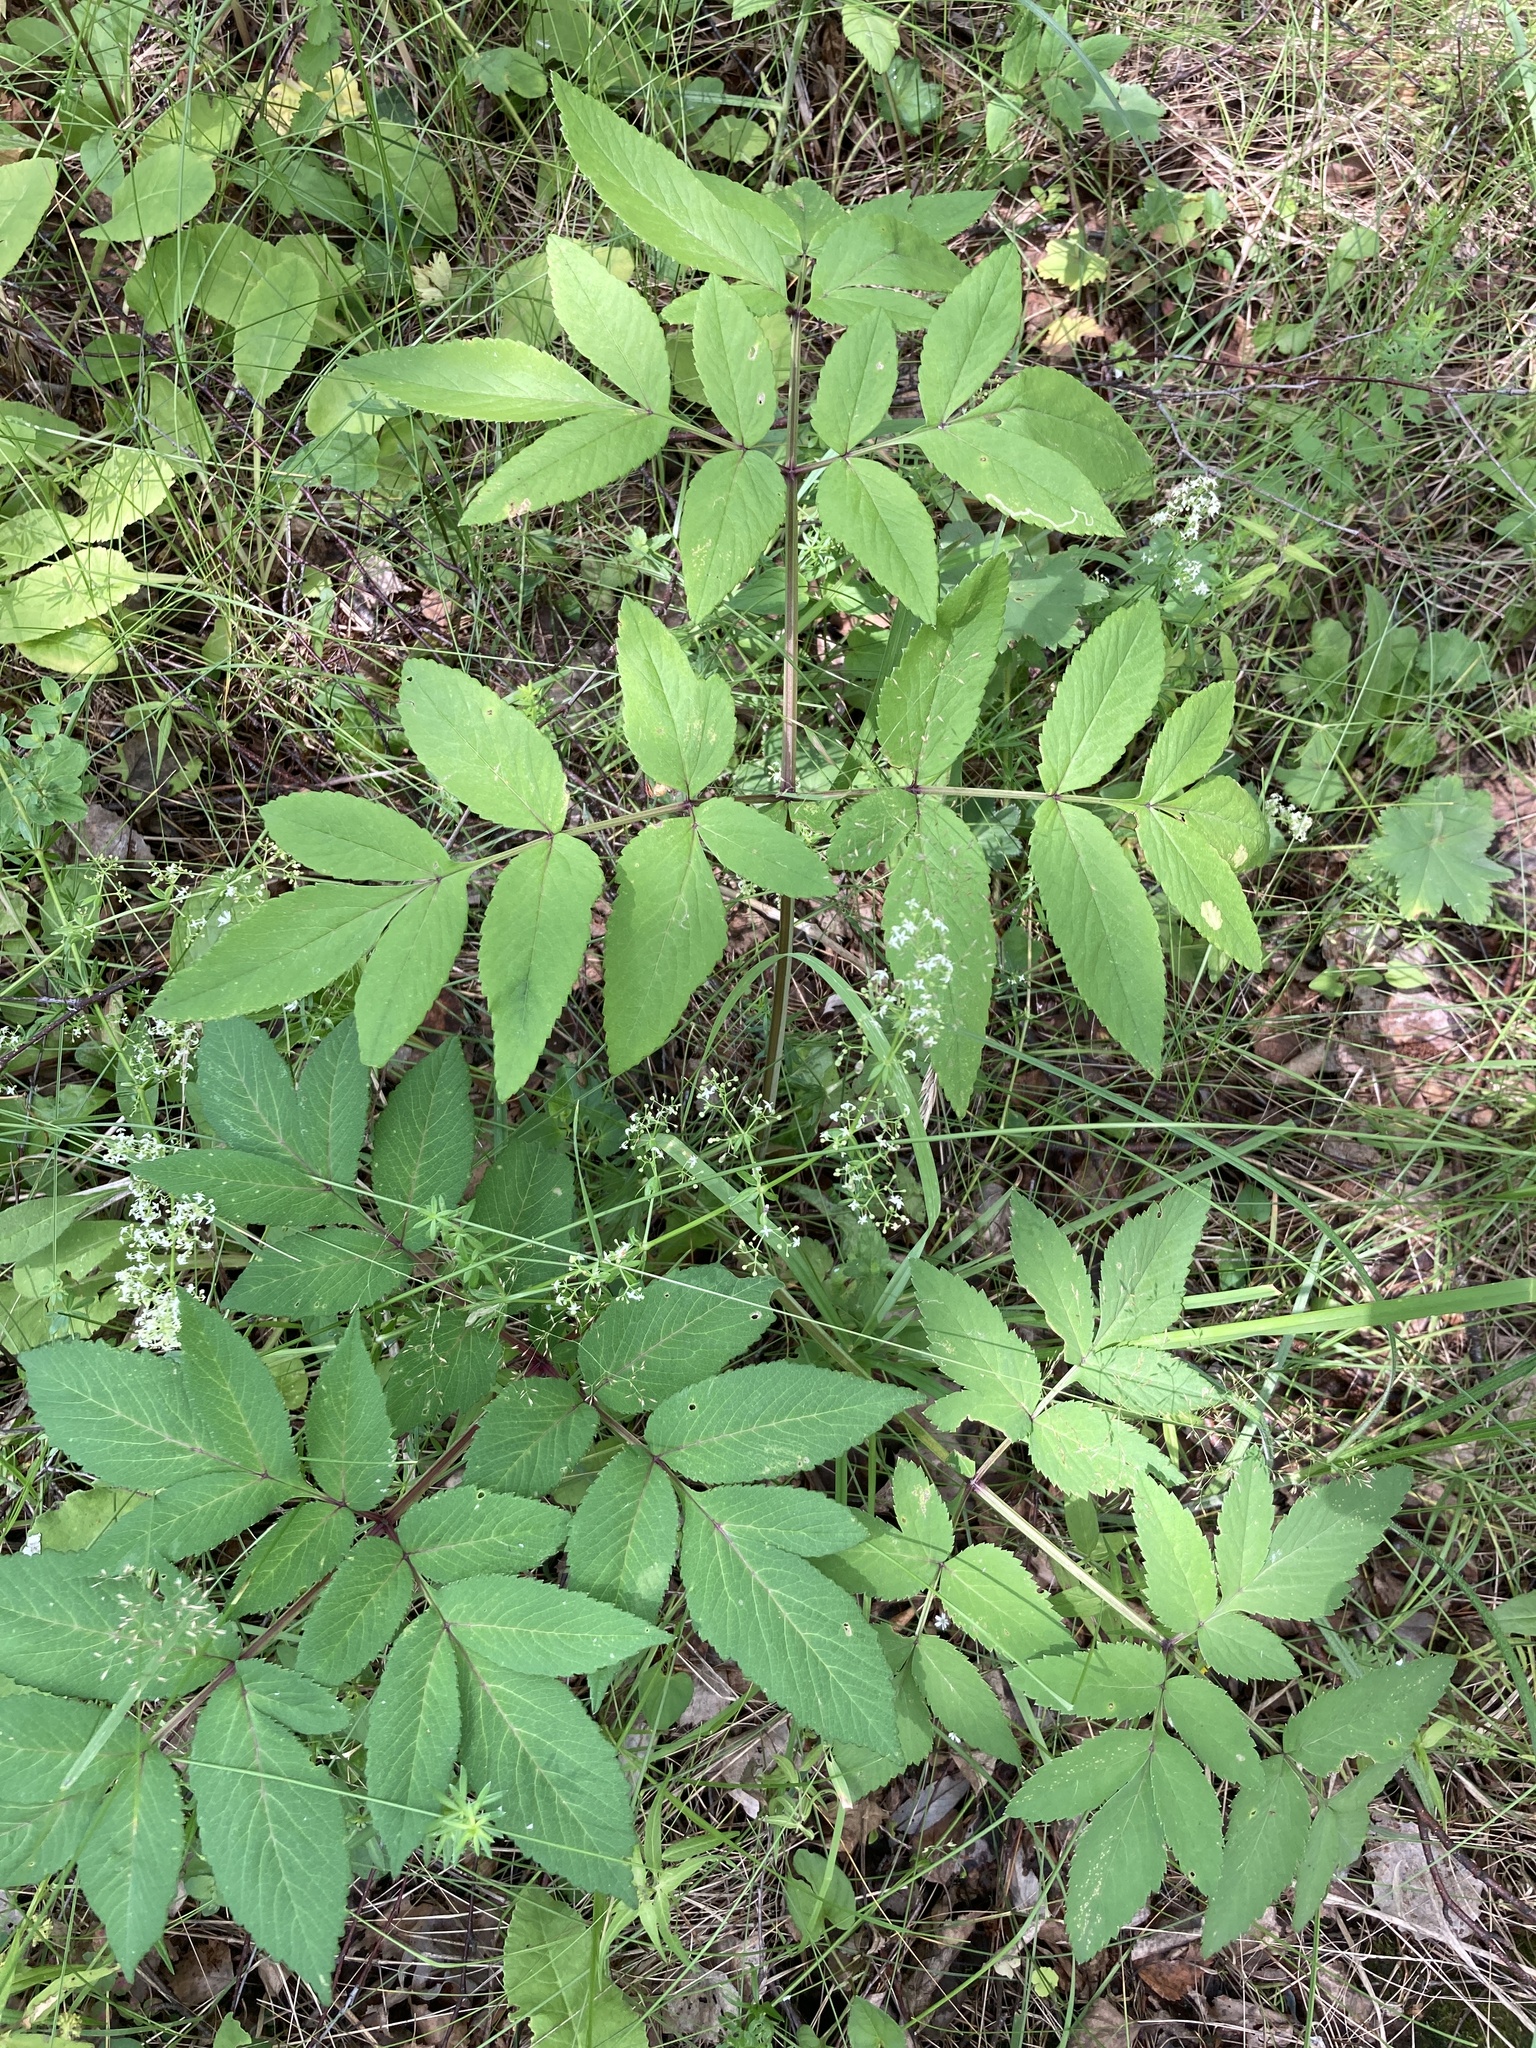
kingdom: Plantae
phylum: Tracheophyta
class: Magnoliopsida
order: Apiales
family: Apiaceae
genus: Angelica
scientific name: Angelica sylvestris
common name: Wild angelica
